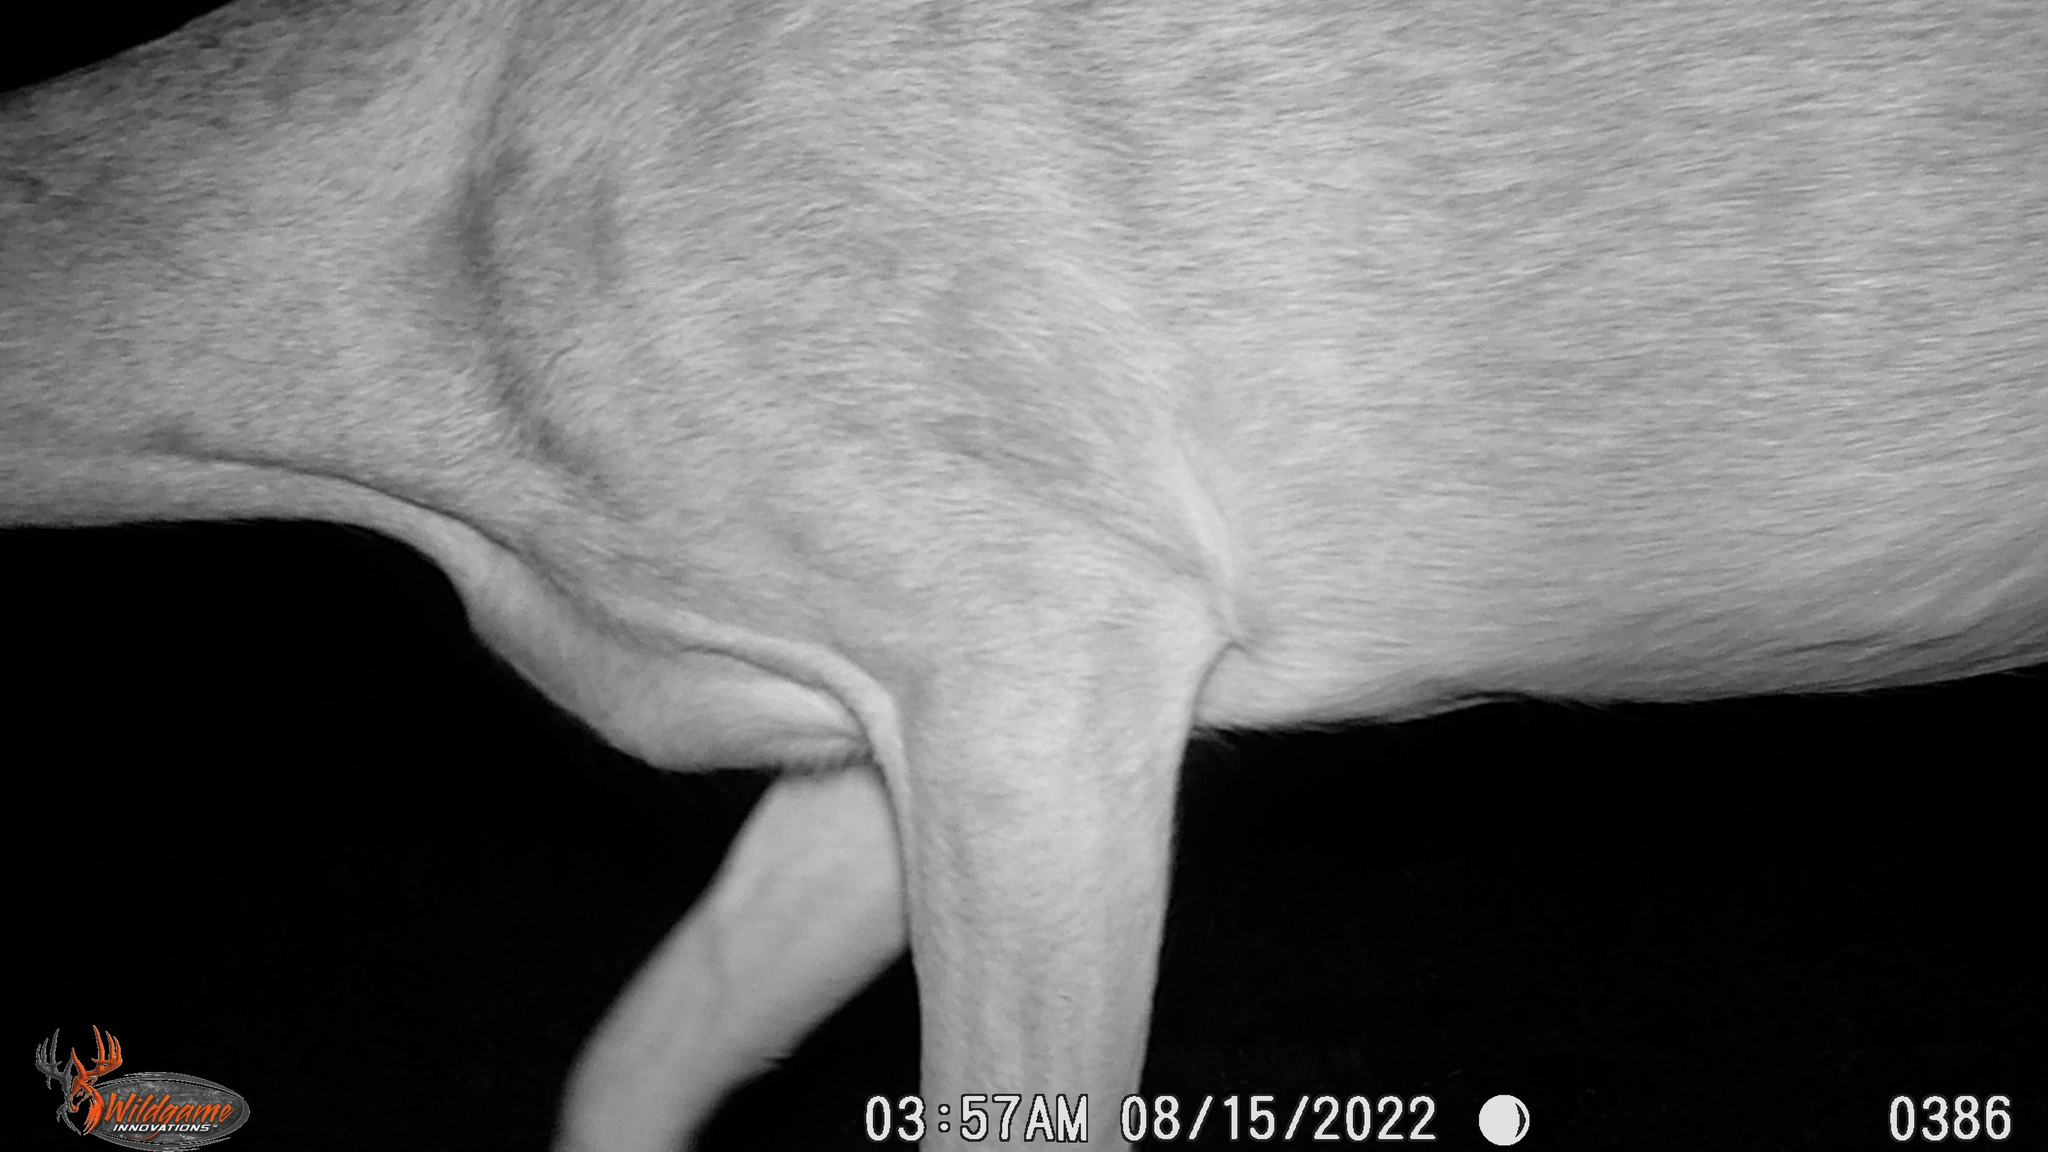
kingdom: Animalia
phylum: Chordata
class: Mammalia
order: Artiodactyla
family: Cervidae
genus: Odocoileus
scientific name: Odocoileus virginianus
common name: White-tailed deer
